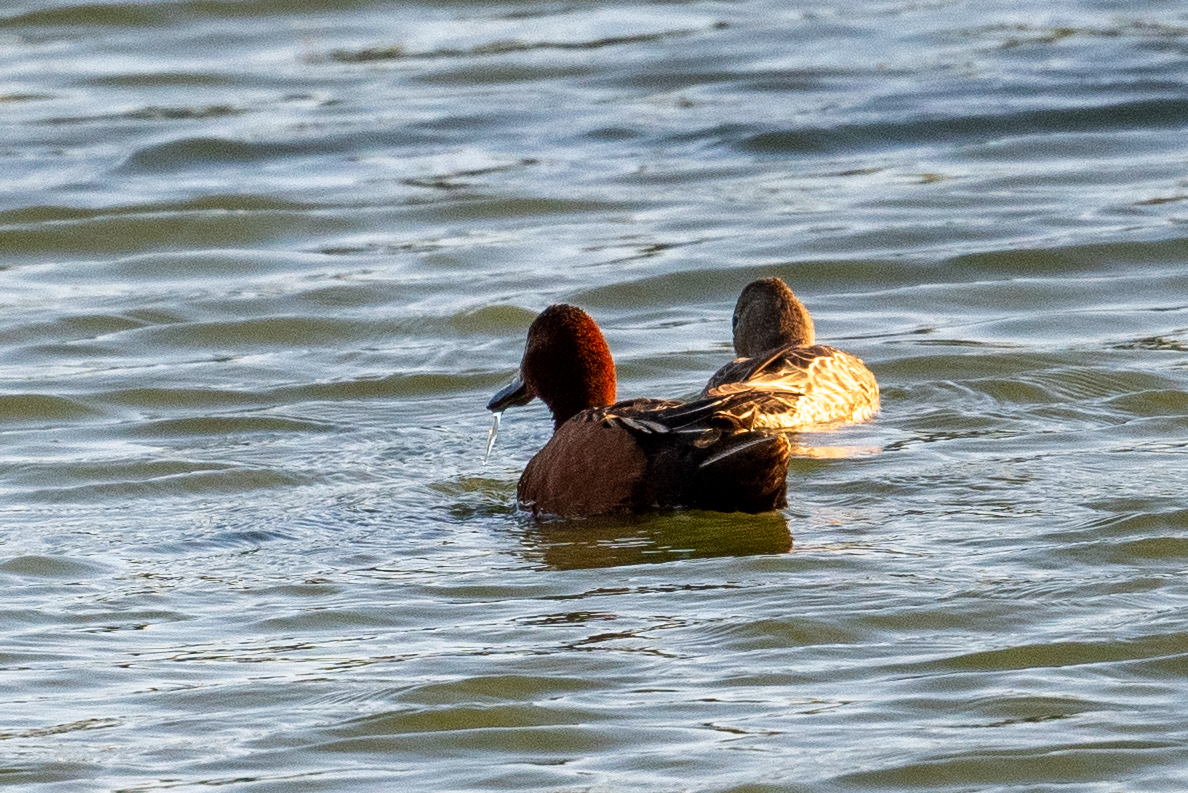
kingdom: Animalia
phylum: Chordata
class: Aves
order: Anseriformes
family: Anatidae
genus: Spatula
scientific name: Spatula cyanoptera
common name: Cinnamon teal
